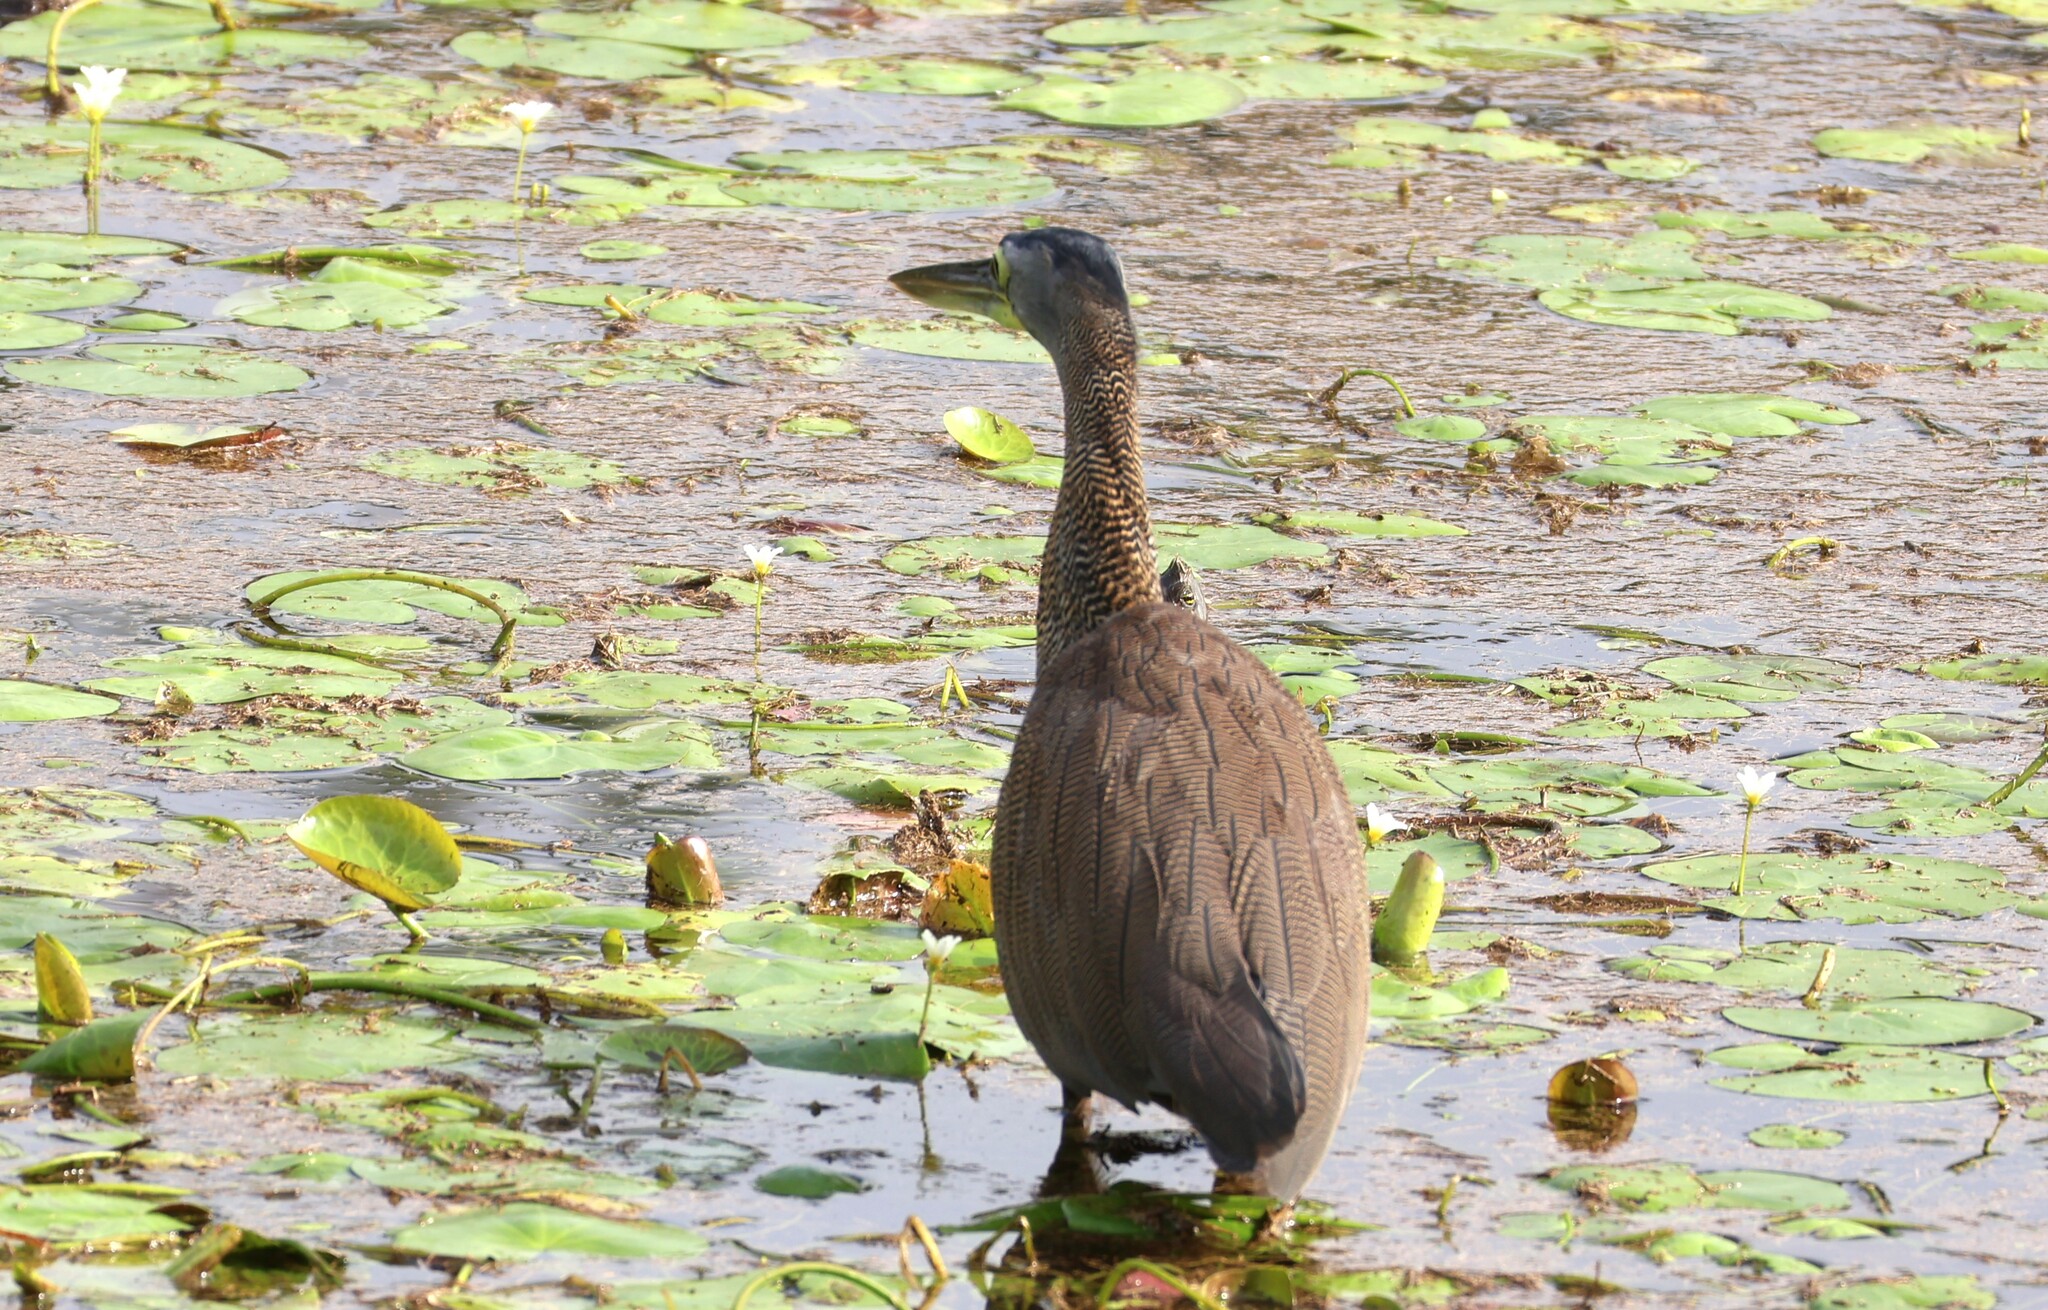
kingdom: Animalia
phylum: Chordata
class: Aves
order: Pelecaniformes
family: Ardeidae
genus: Tigrisoma
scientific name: Tigrisoma mexicanum
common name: Bare-throated tiger-heron
